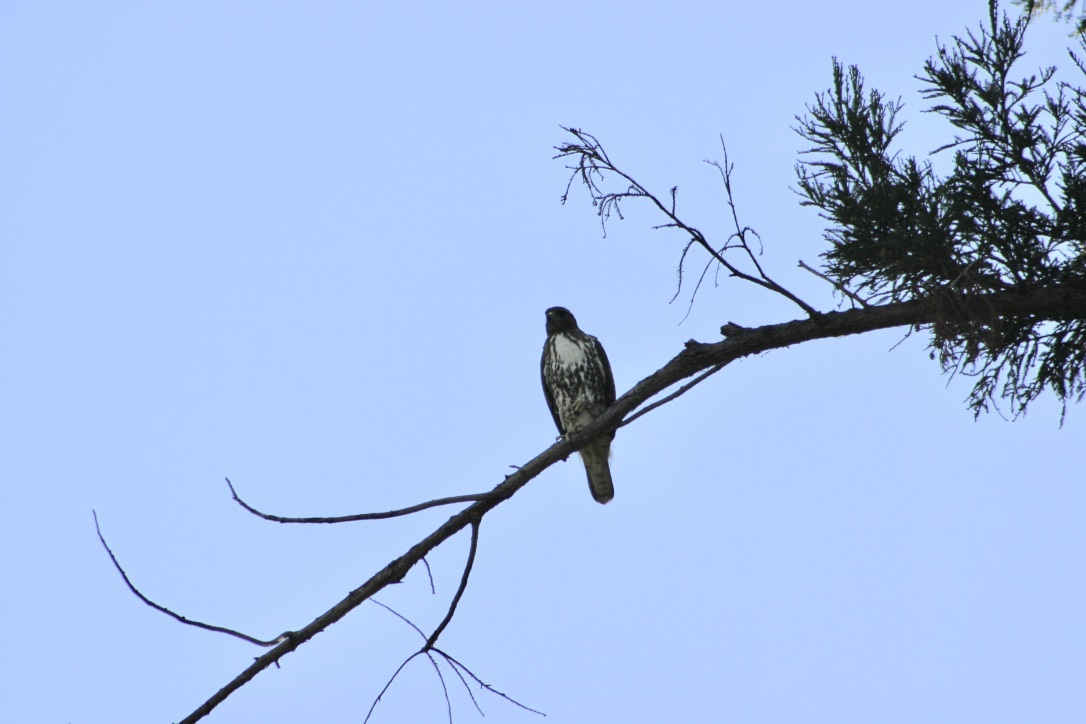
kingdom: Animalia
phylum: Chordata
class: Aves
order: Accipitriformes
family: Accipitridae
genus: Buteo
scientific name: Buteo jamaicensis
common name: Red-tailed hawk
